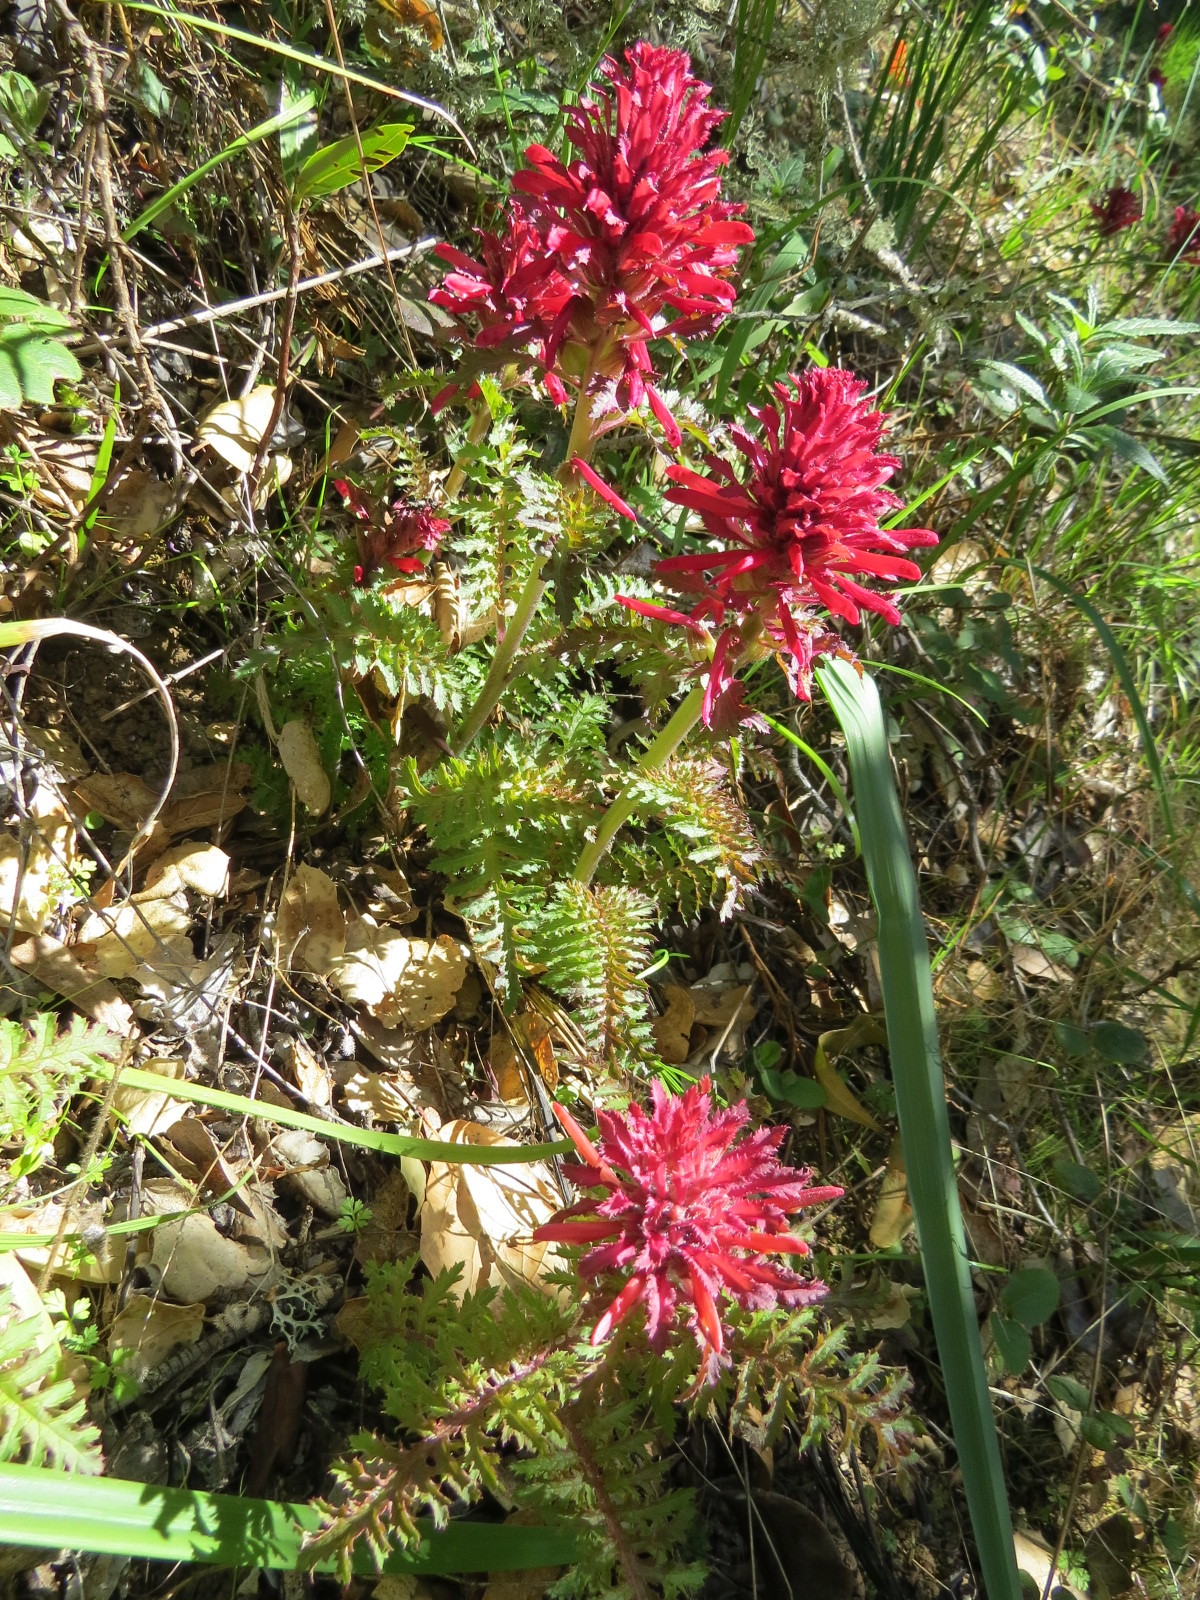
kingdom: Plantae
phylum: Tracheophyta
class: Magnoliopsida
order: Lamiales
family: Orobanchaceae
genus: Pedicularis
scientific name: Pedicularis densiflora
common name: Indian warrior
